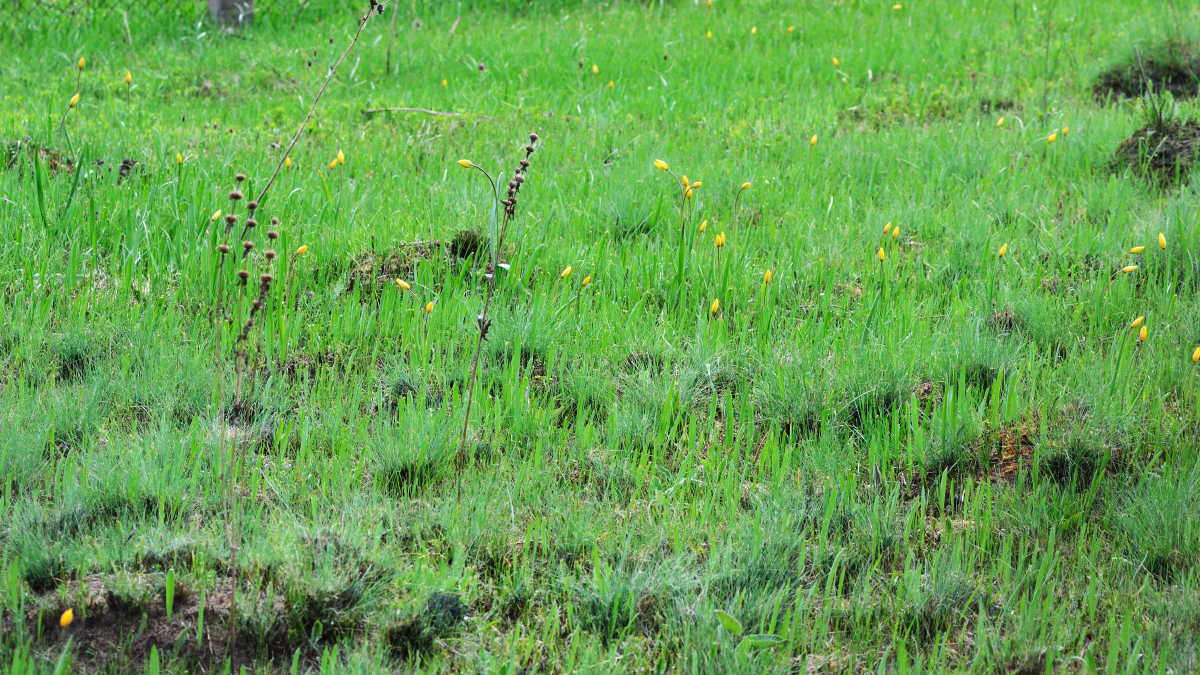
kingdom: Plantae
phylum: Tracheophyta
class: Liliopsida
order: Liliales
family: Liliaceae
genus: Tulipa
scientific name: Tulipa sylvestris
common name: Wild tulip
